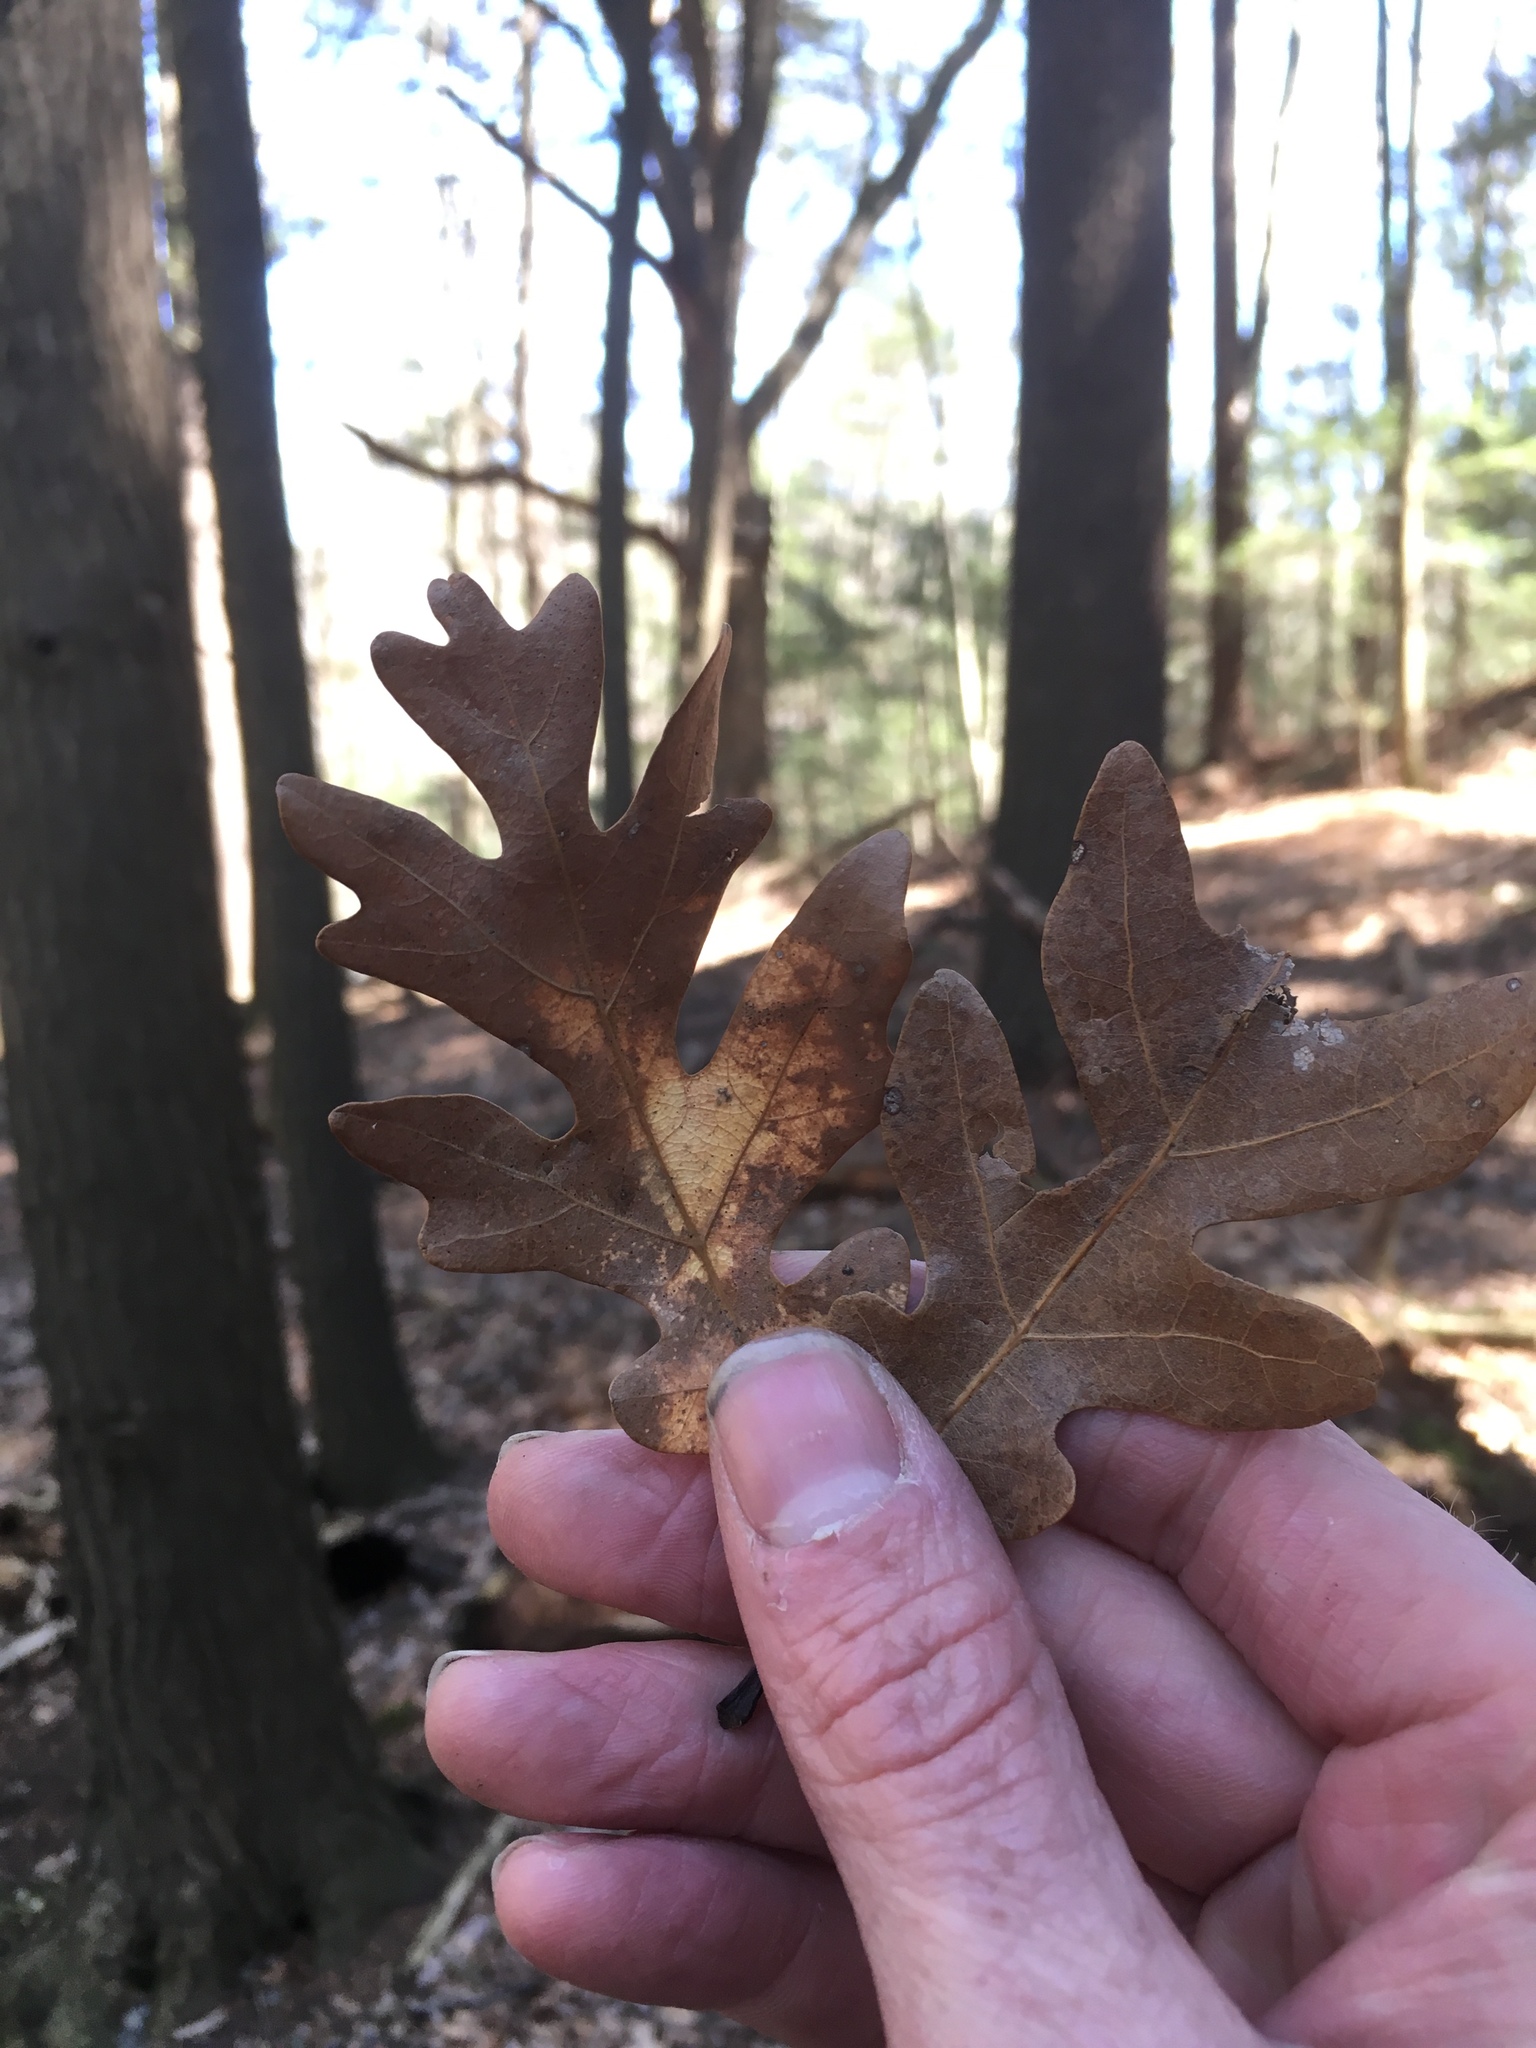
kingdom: Plantae
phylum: Tracheophyta
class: Magnoliopsida
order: Fagales
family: Fagaceae
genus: Quercus
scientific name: Quercus alba
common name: White oak
